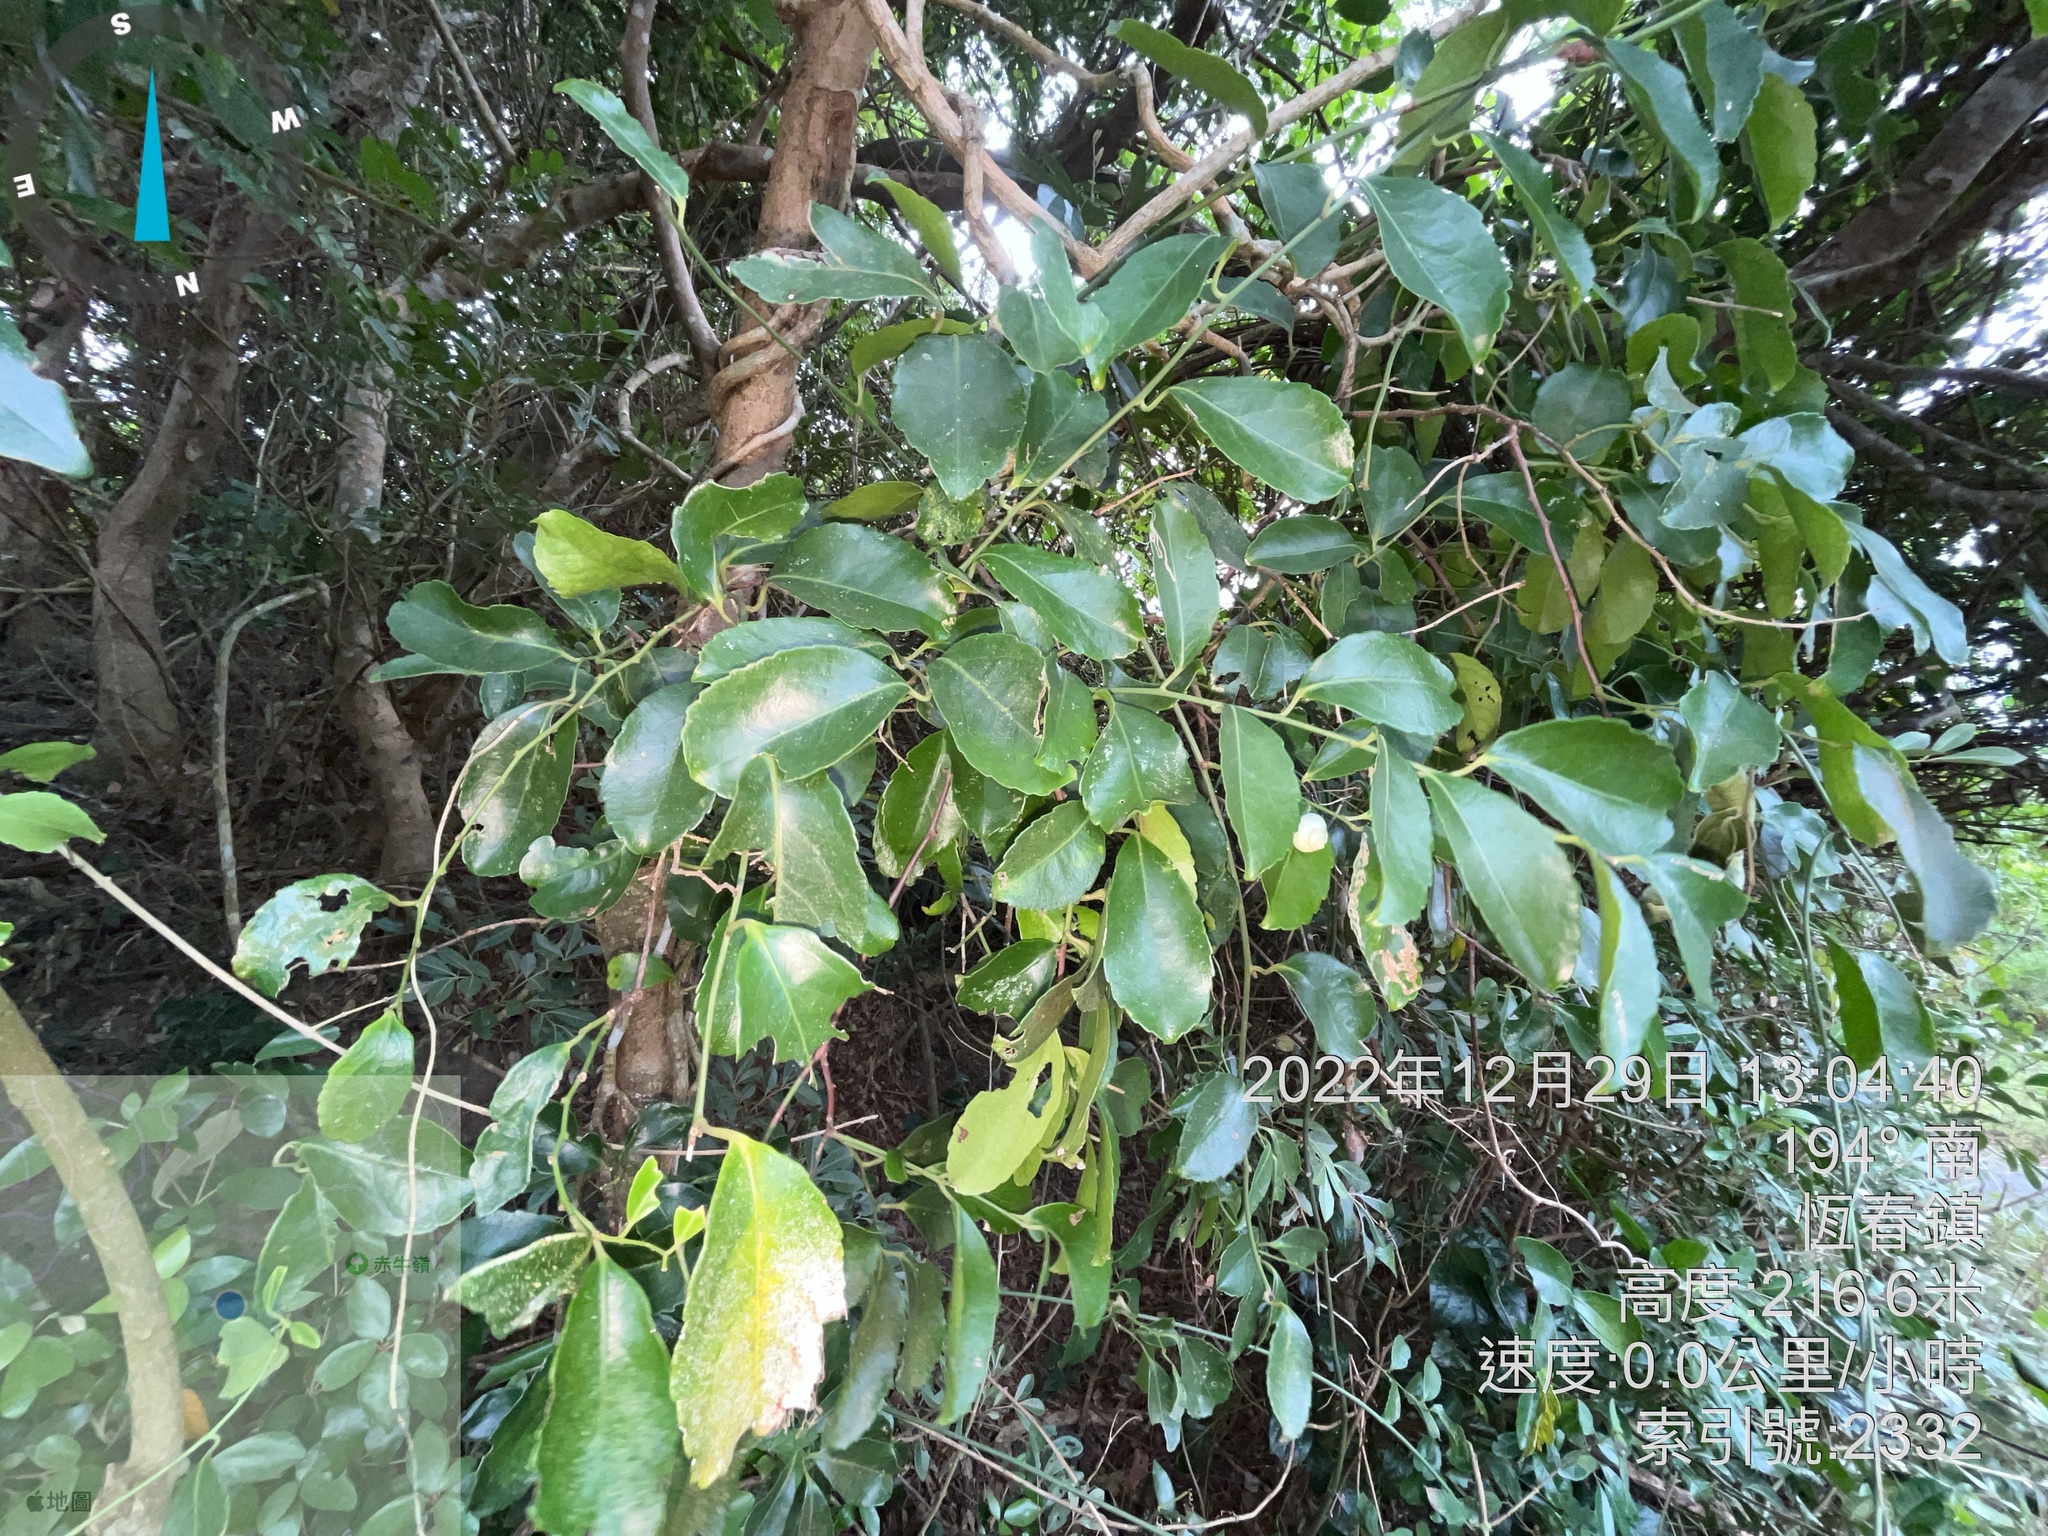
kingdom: Plantae
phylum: Tracheophyta
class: Magnoliopsida
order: Celastrales
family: Celastraceae
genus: Celastrus
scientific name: Celastrus paniculatus
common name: Oriental bittersweet; staff vine
